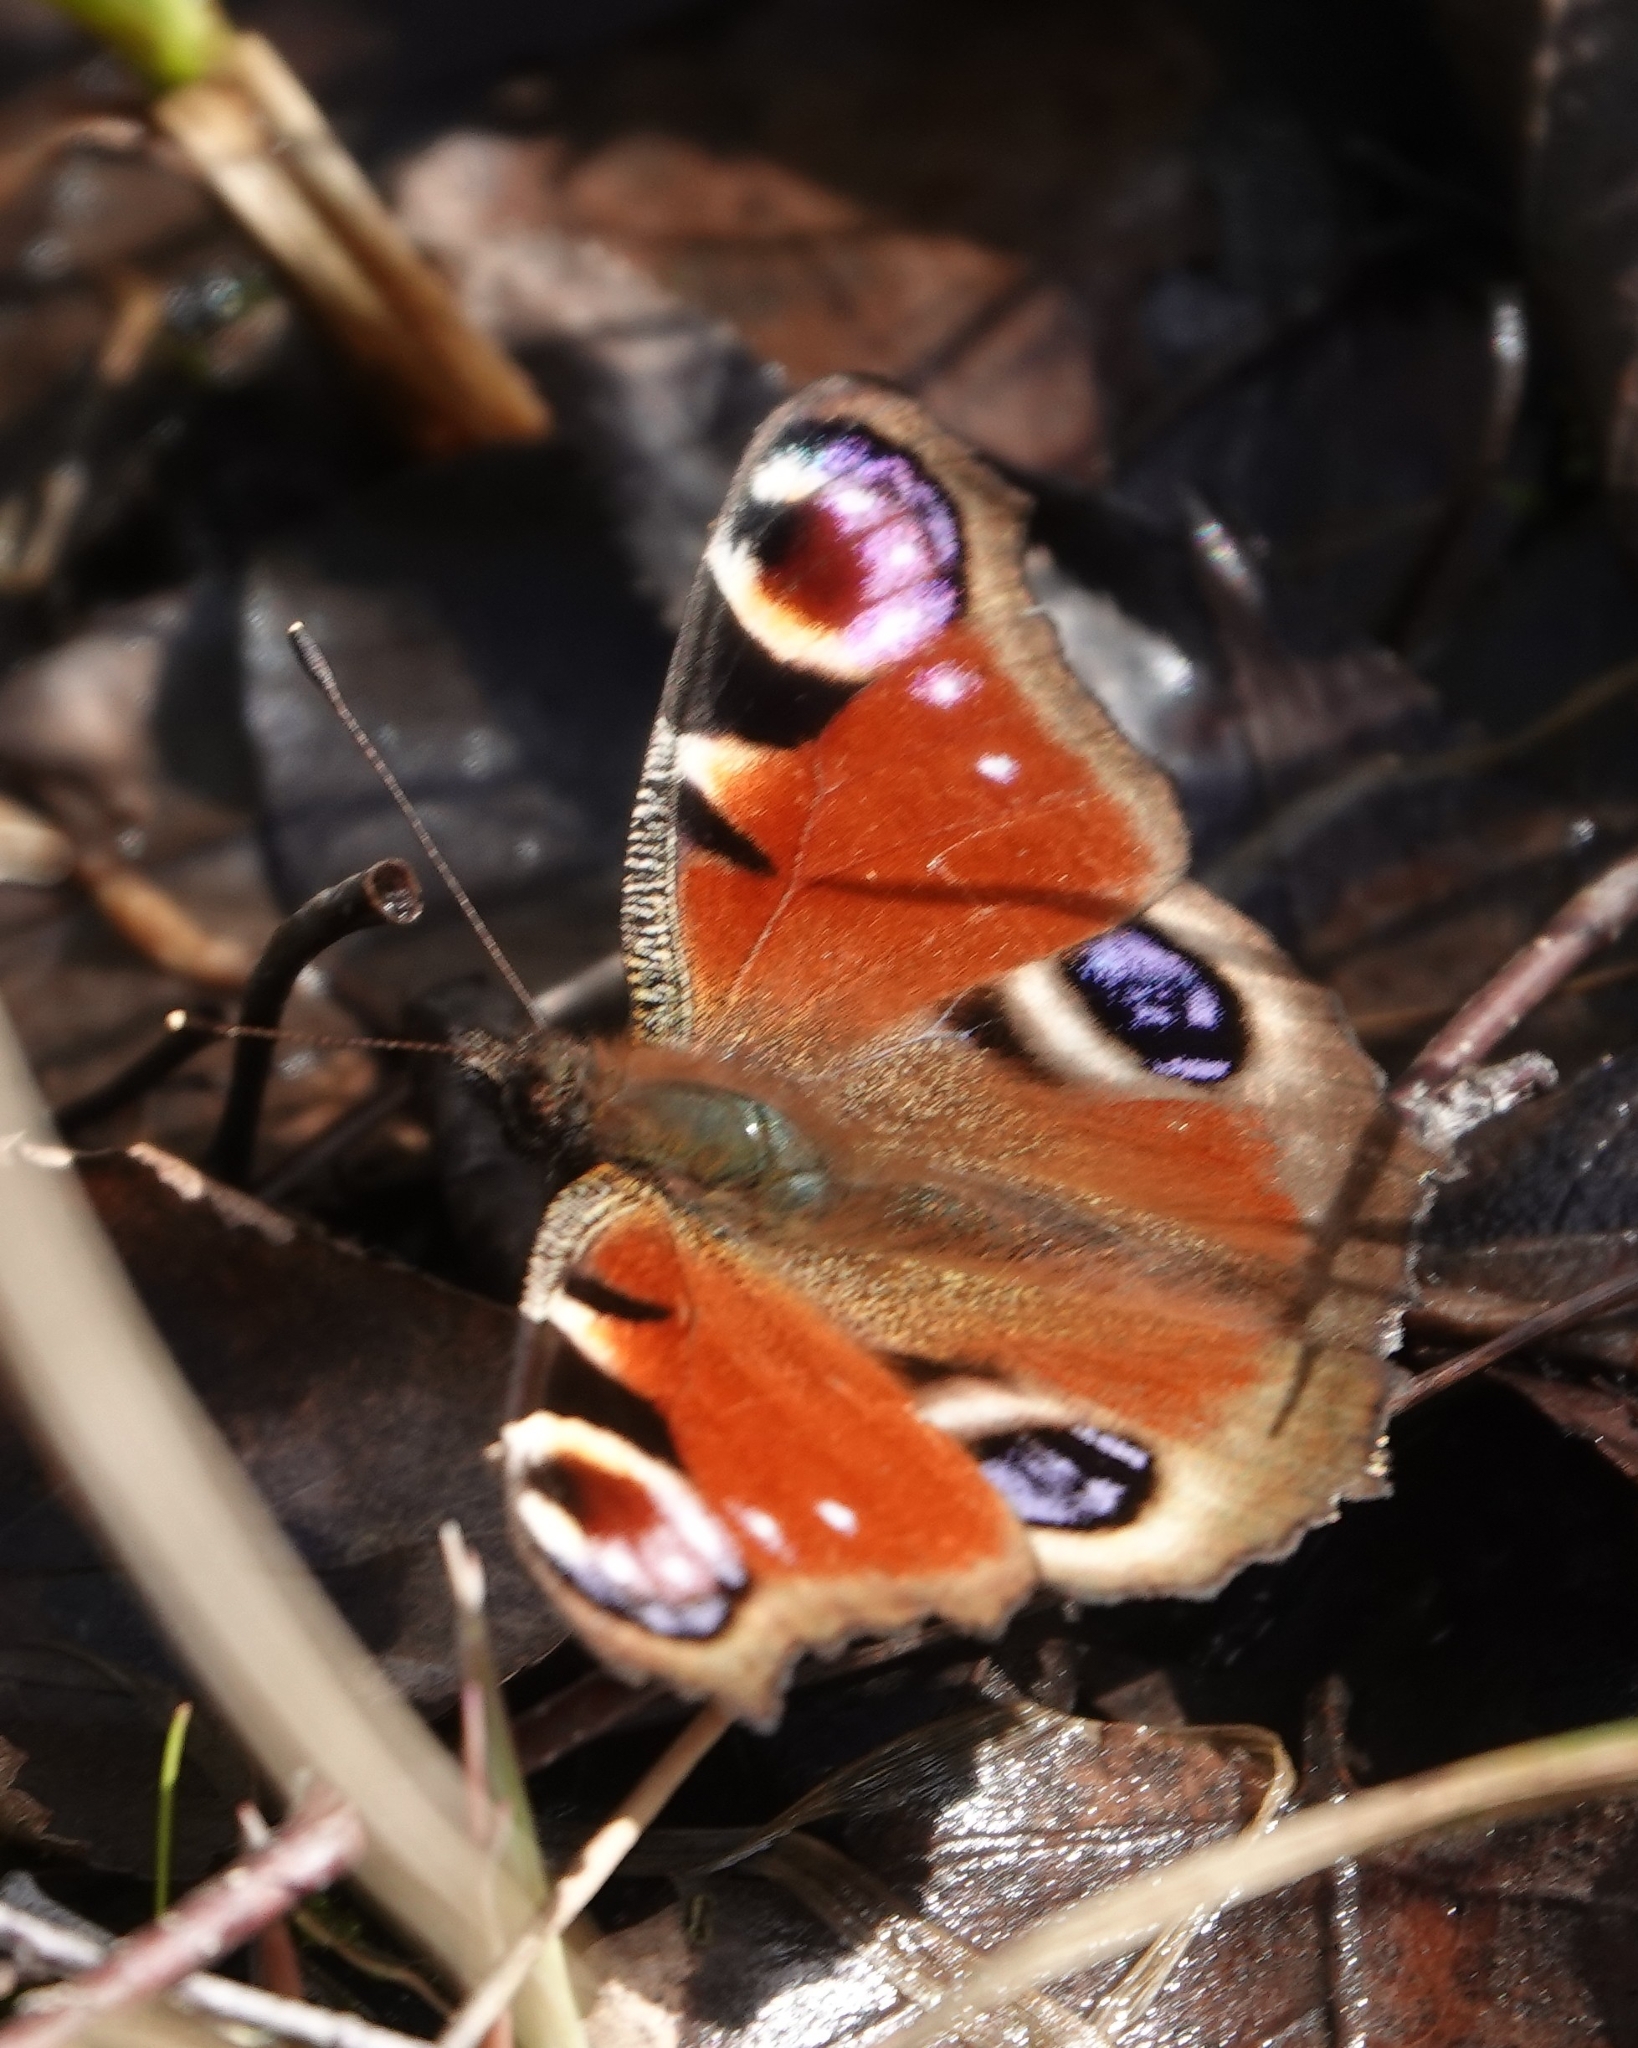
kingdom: Animalia
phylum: Arthropoda
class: Insecta
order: Lepidoptera
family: Nymphalidae
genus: Aglais
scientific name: Aglais io
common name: Peacock
